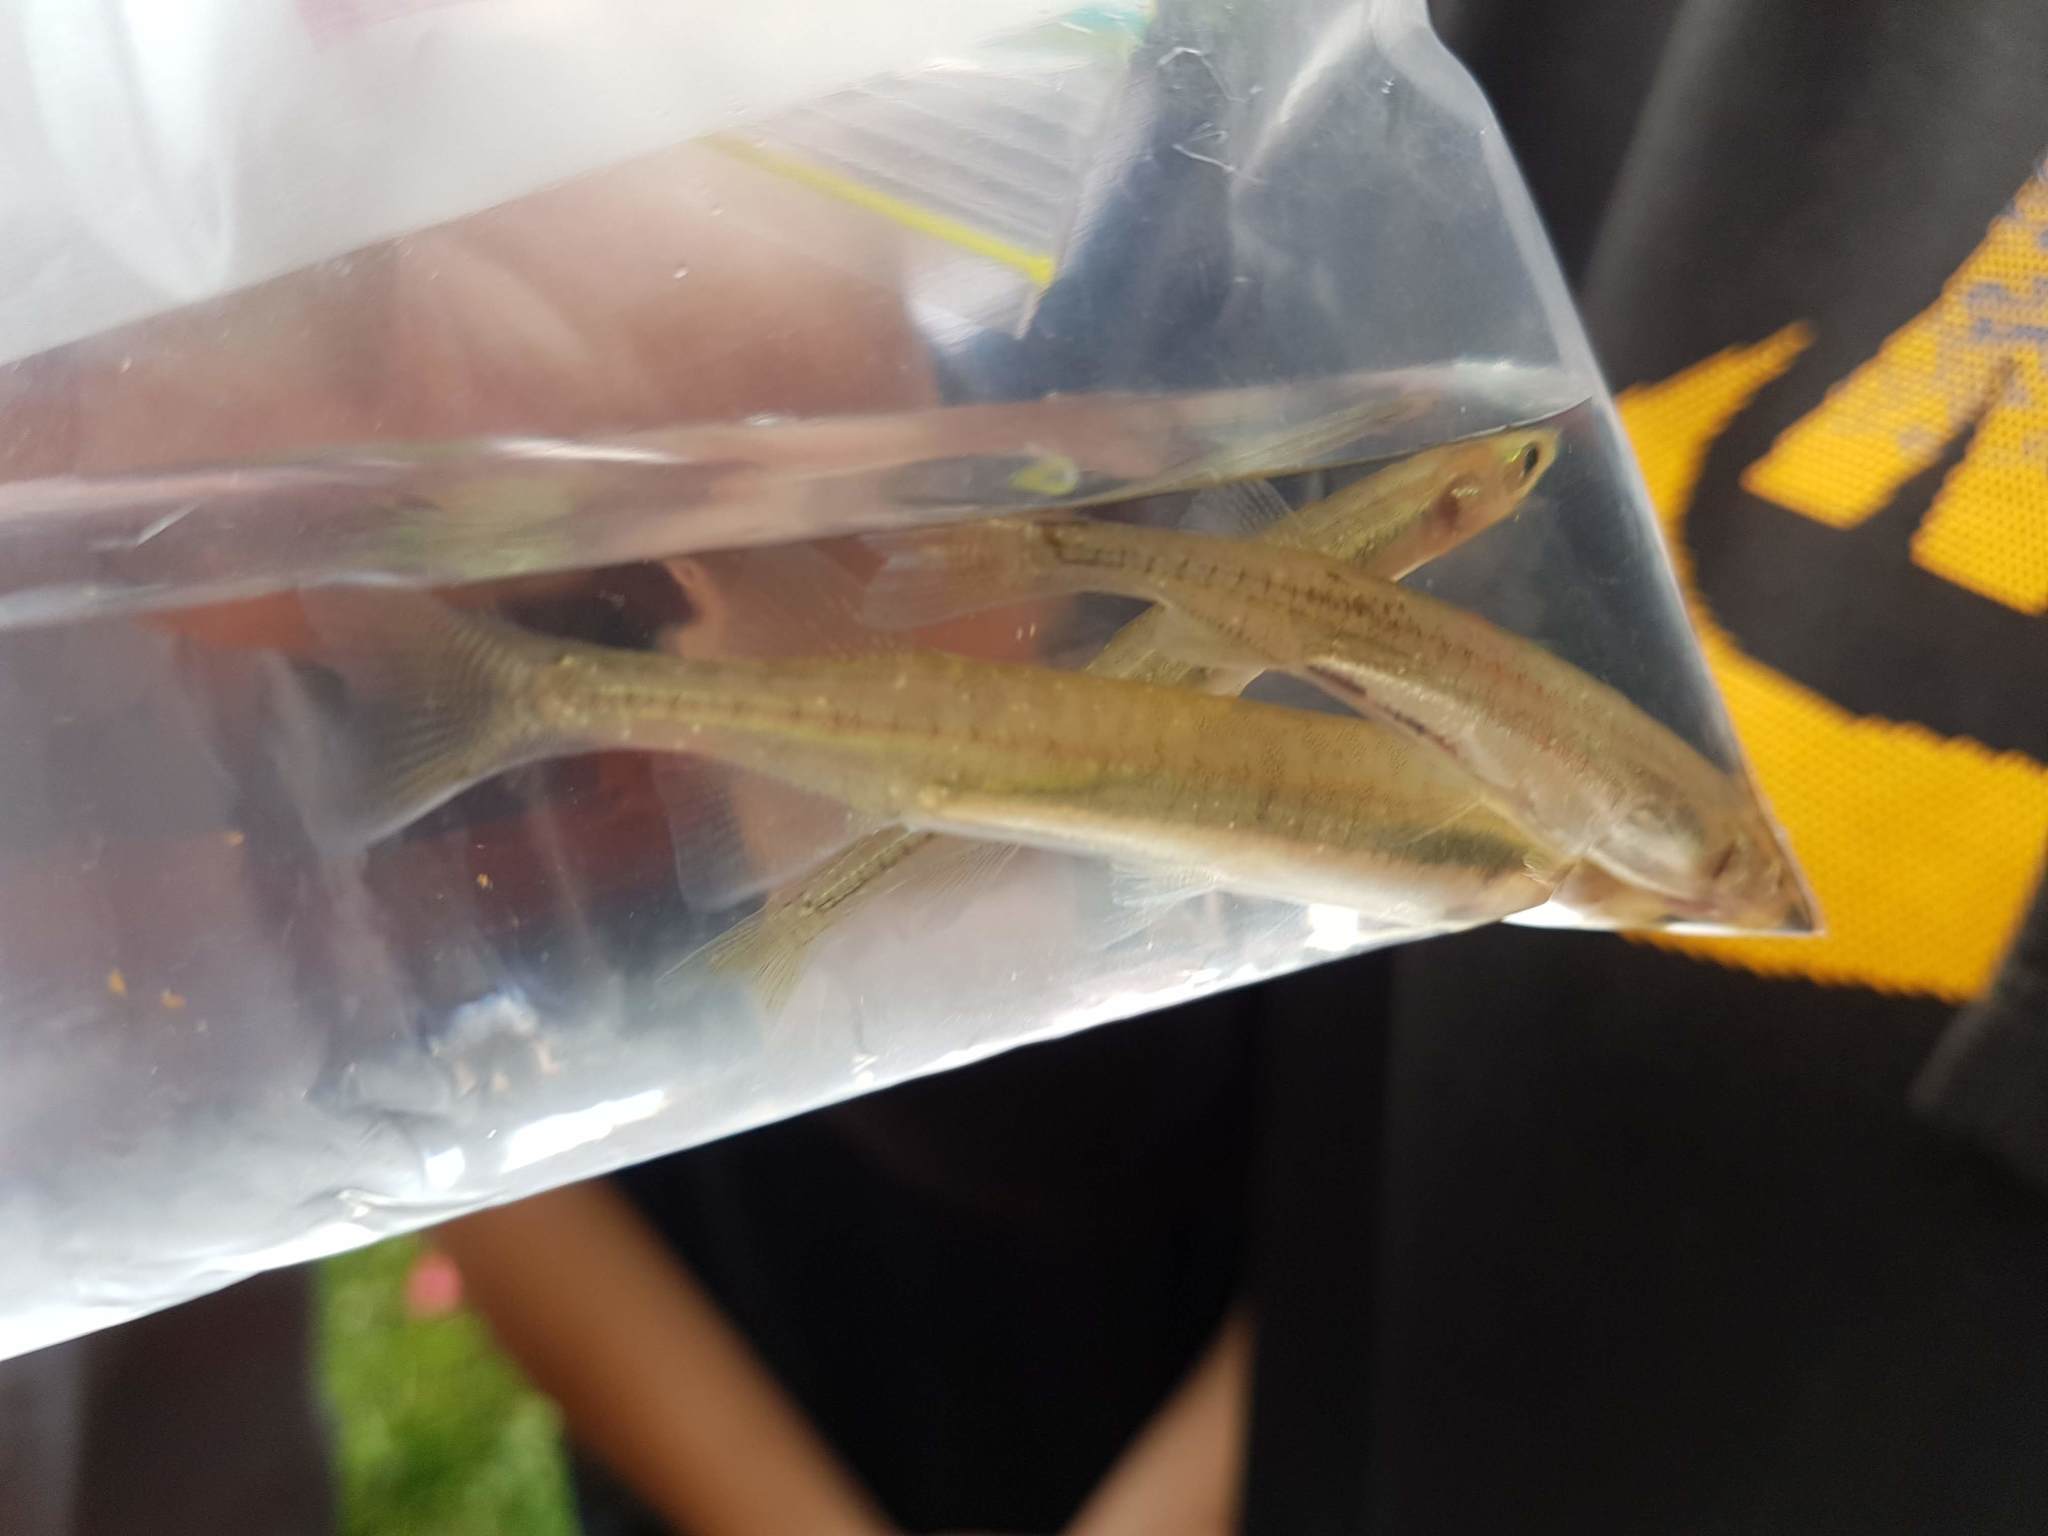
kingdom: Animalia
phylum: Chordata
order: Osmeriformes
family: Galaxiidae
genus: Galaxias
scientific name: Galaxias maculatus
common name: Common galaxias
